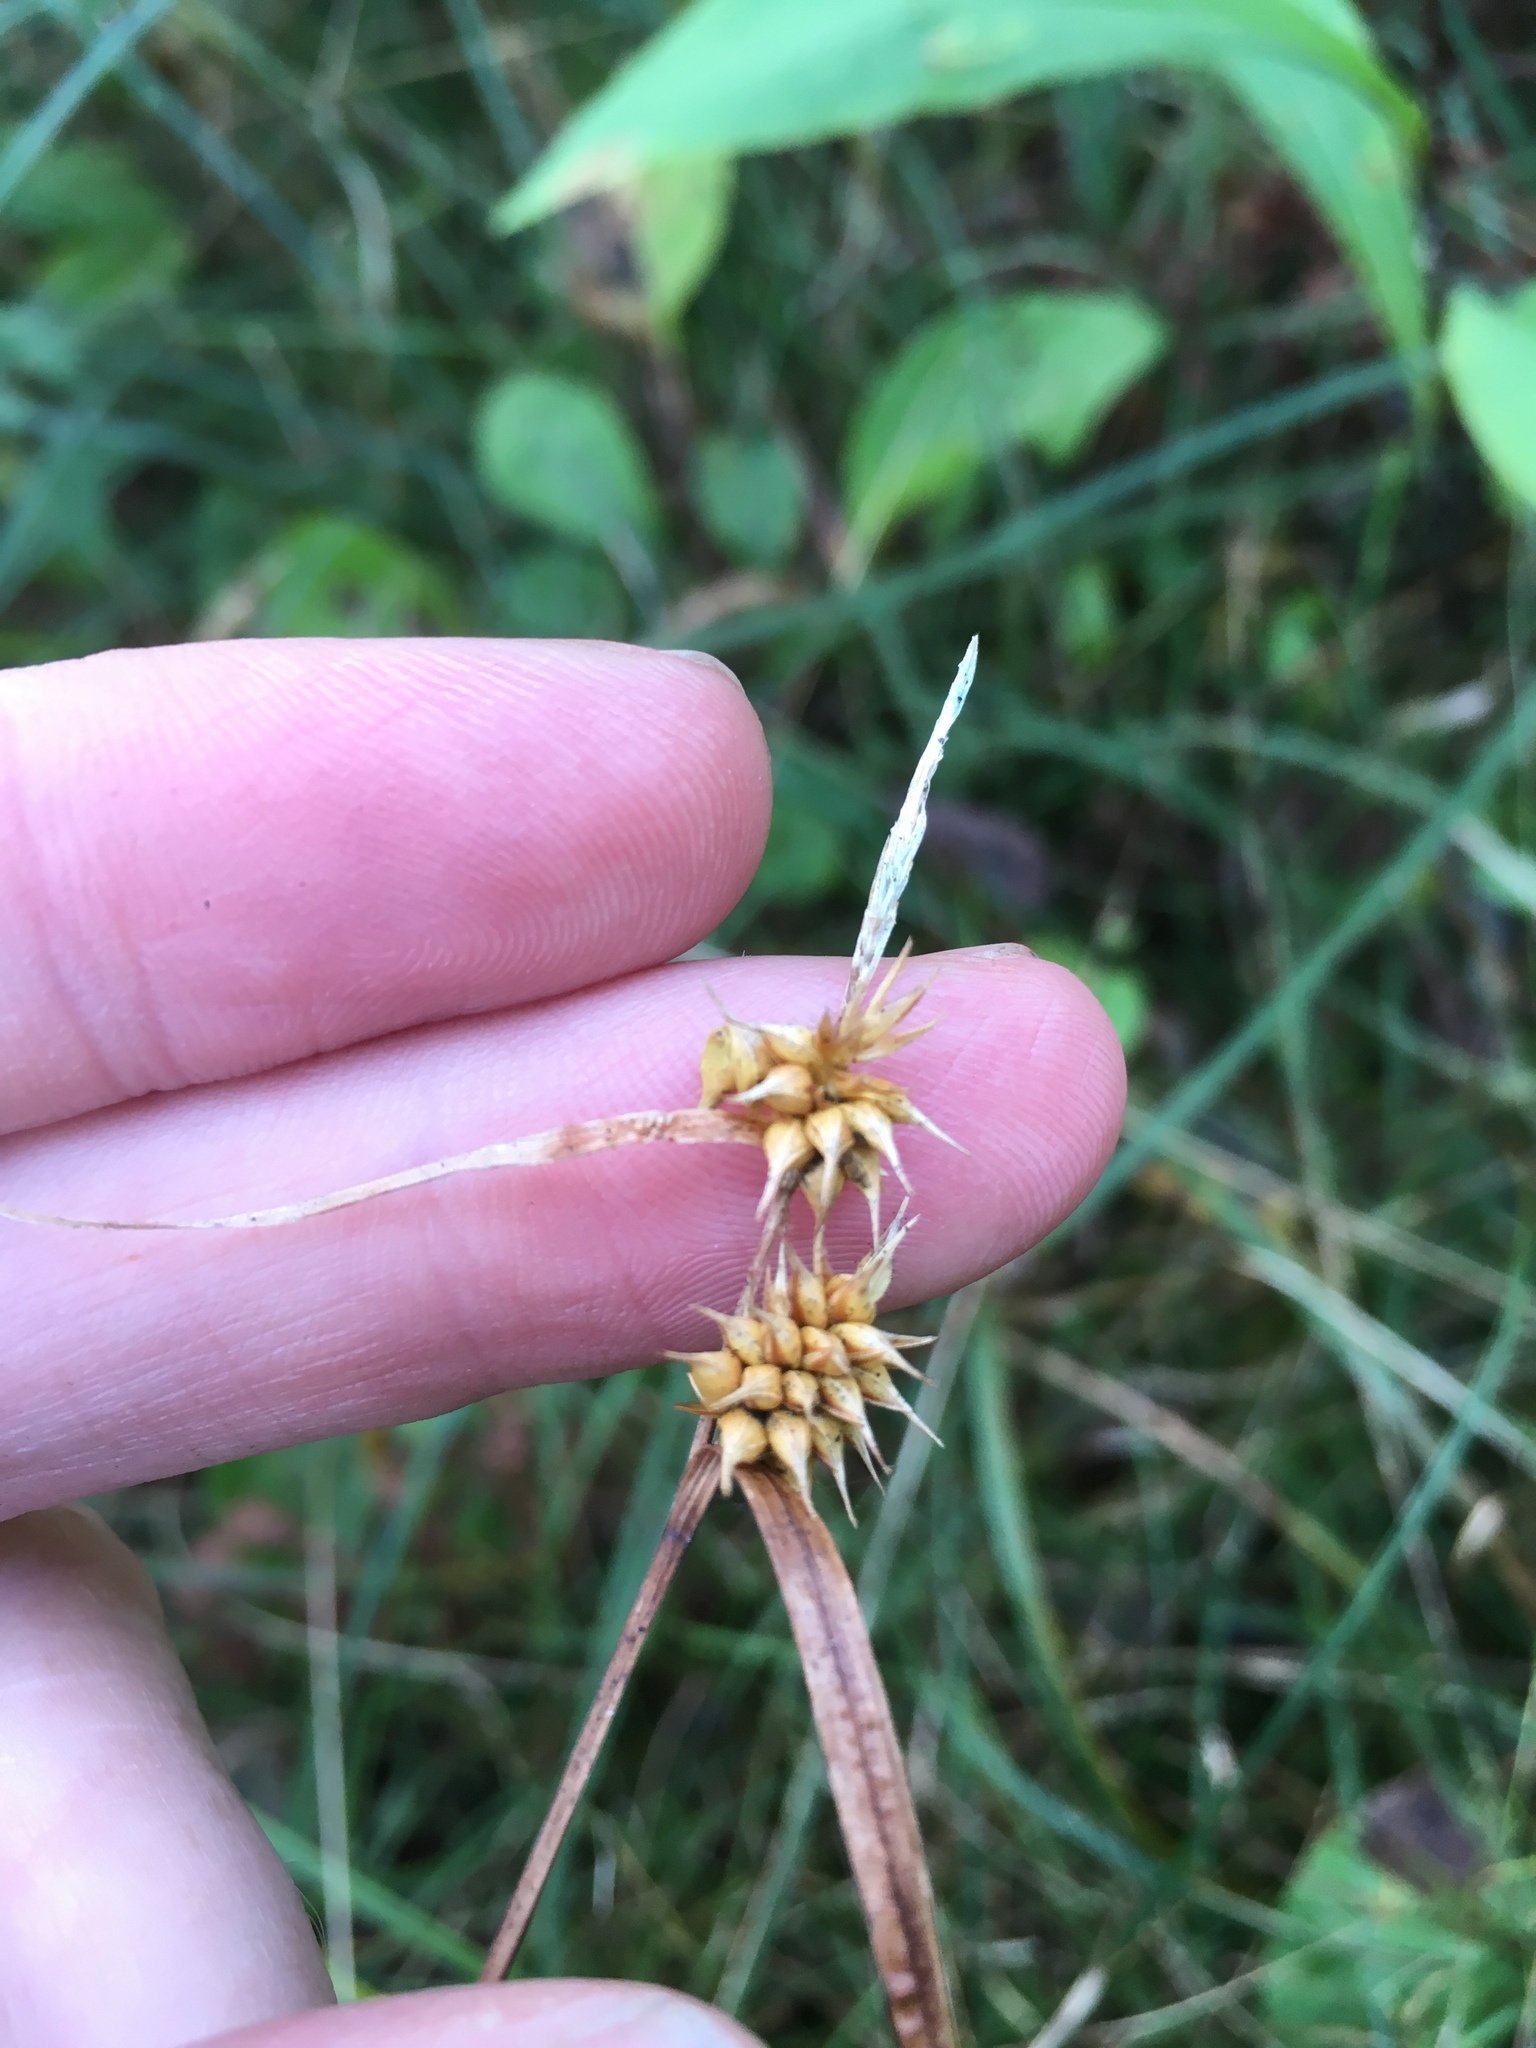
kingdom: Plantae
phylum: Tracheophyta
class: Liliopsida
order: Poales
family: Cyperaceae
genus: Carex
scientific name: Carex flava
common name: Large yellow-sedge
